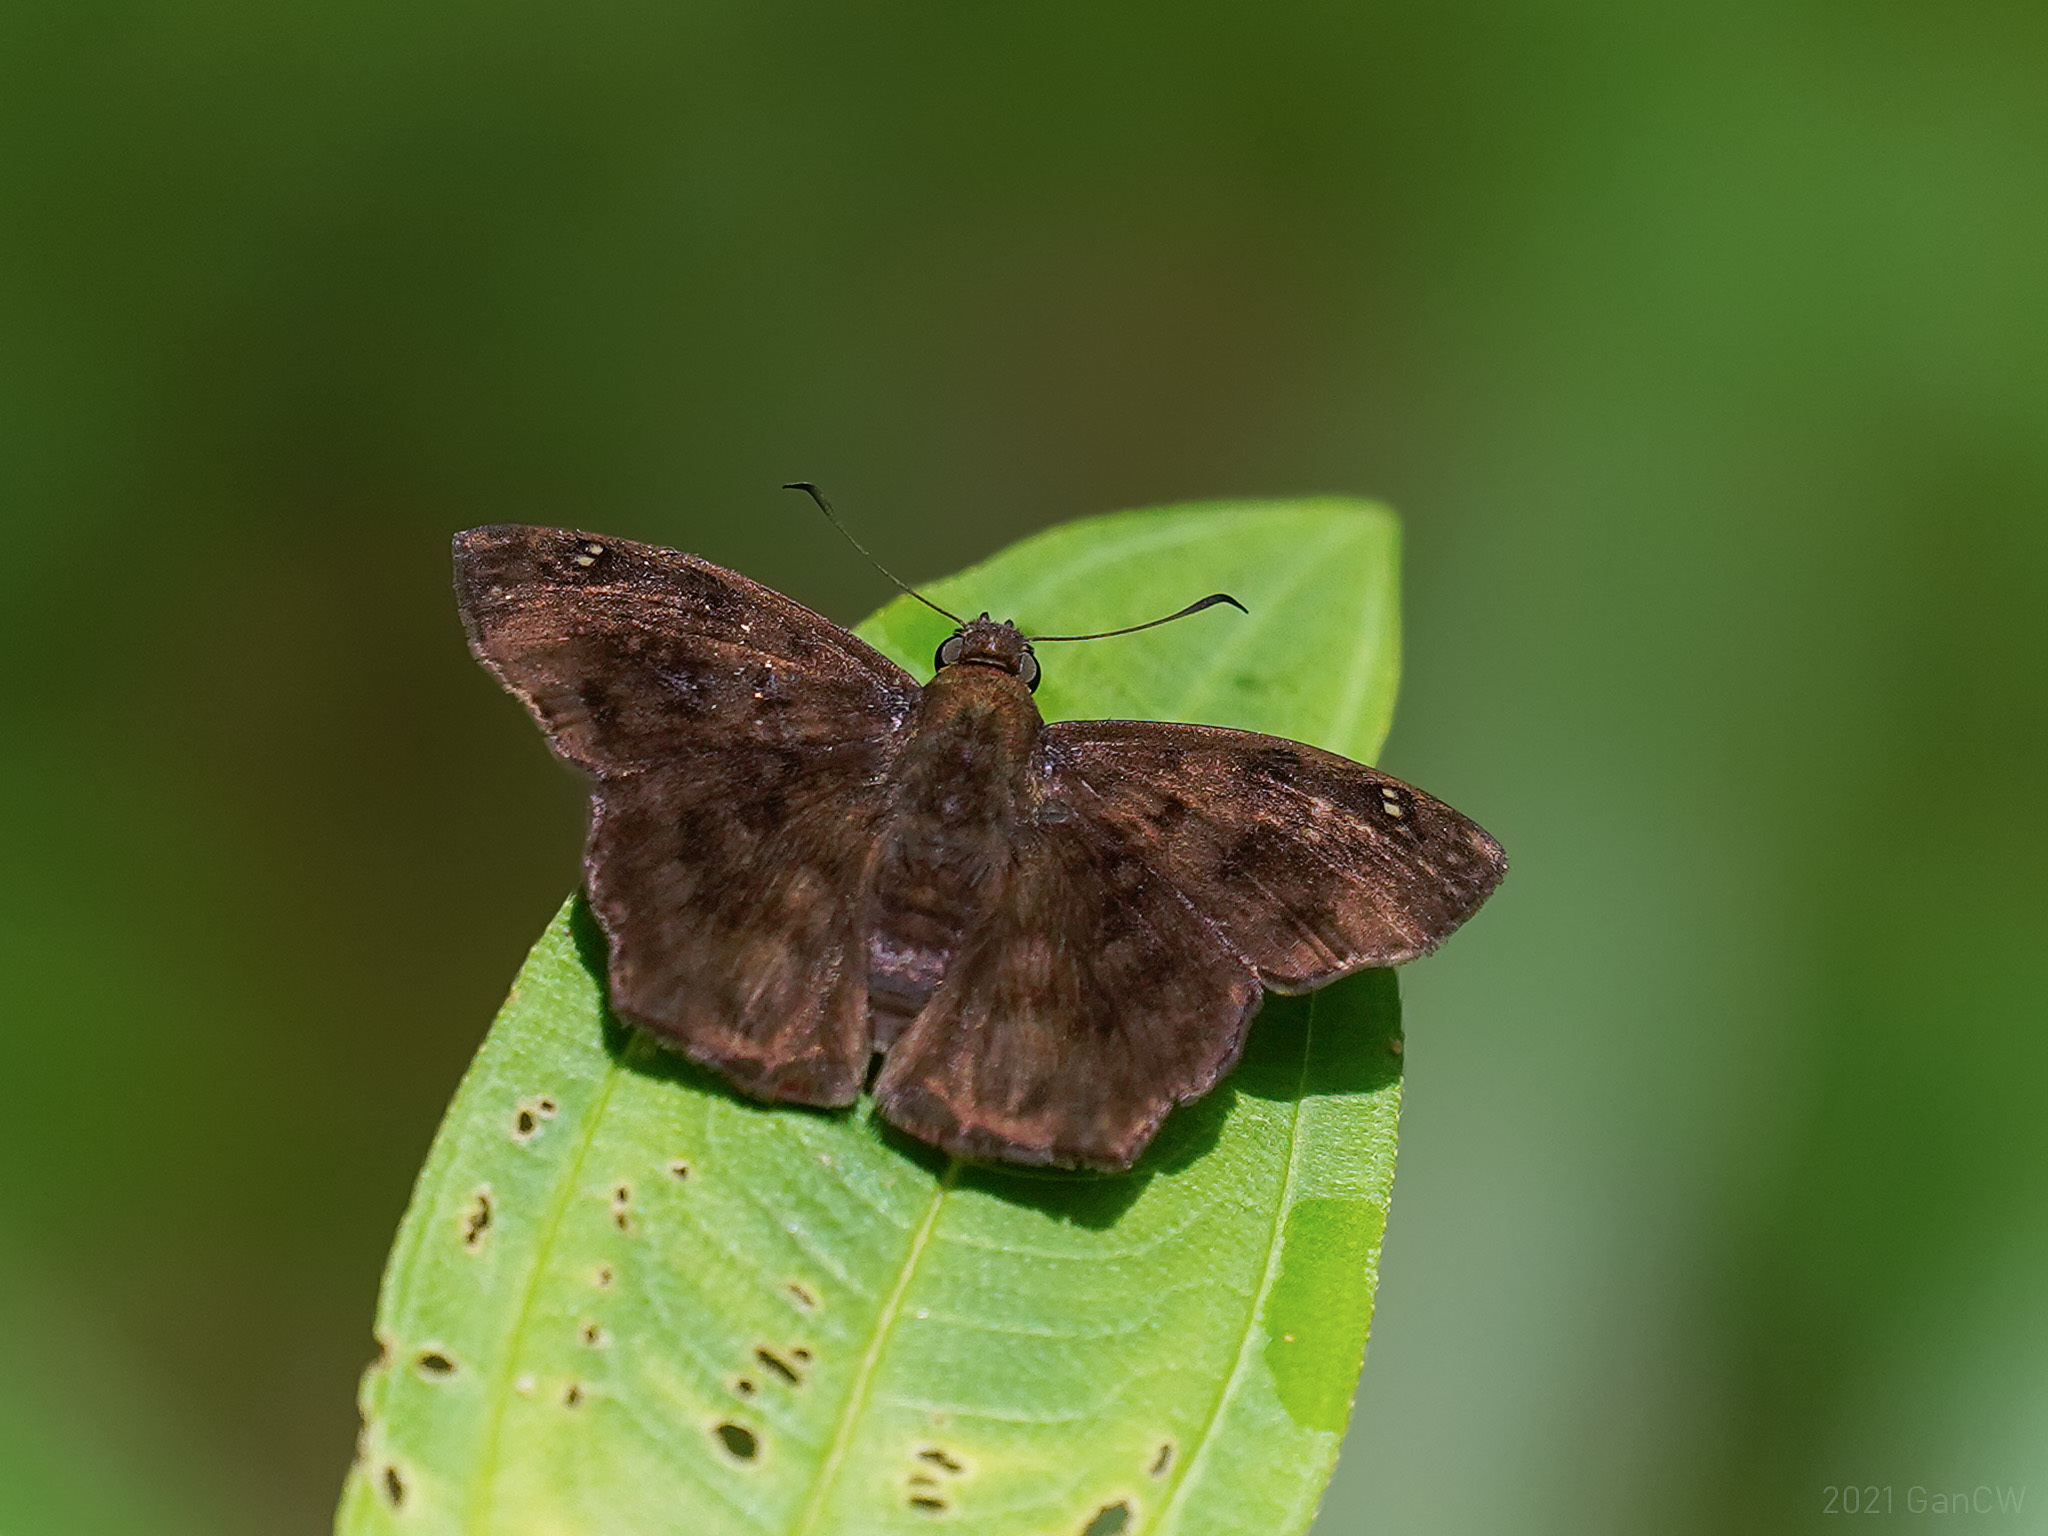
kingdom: Animalia
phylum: Arthropoda
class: Insecta
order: Lepidoptera
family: Hesperiidae
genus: Tapena
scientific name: Tapena thwaitesi
